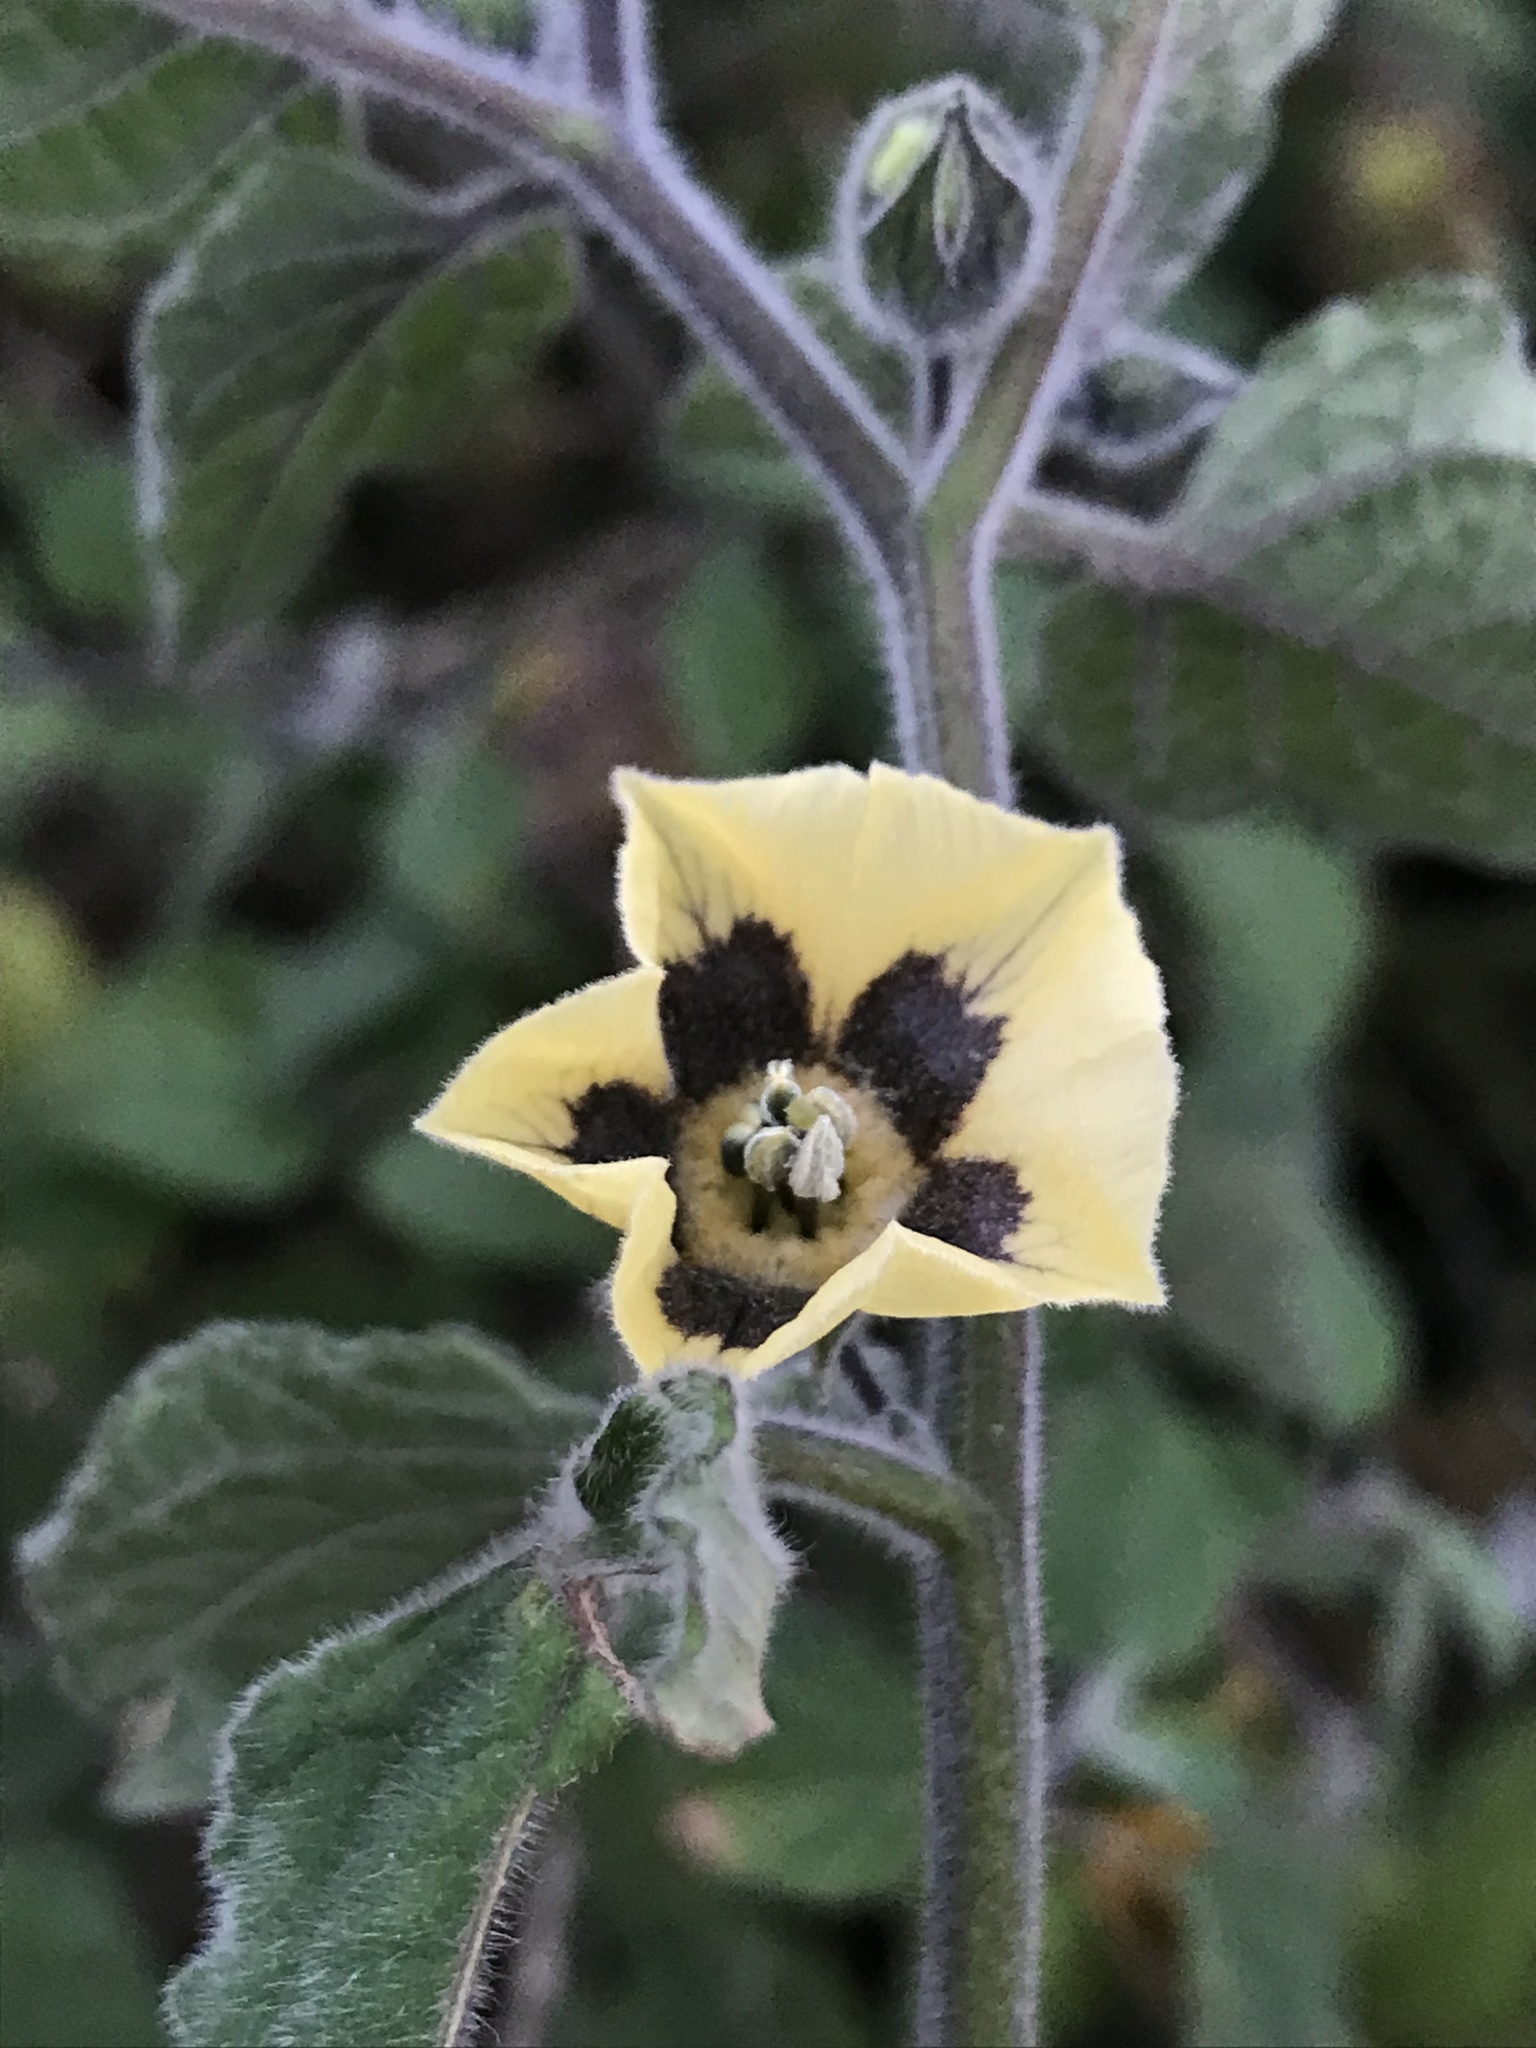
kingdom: Plantae
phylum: Tracheophyta
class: Magnoliopsida
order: Solanales
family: Solanaceae
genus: Physalis
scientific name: Physalis peruviana
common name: Cape-gooseberry
